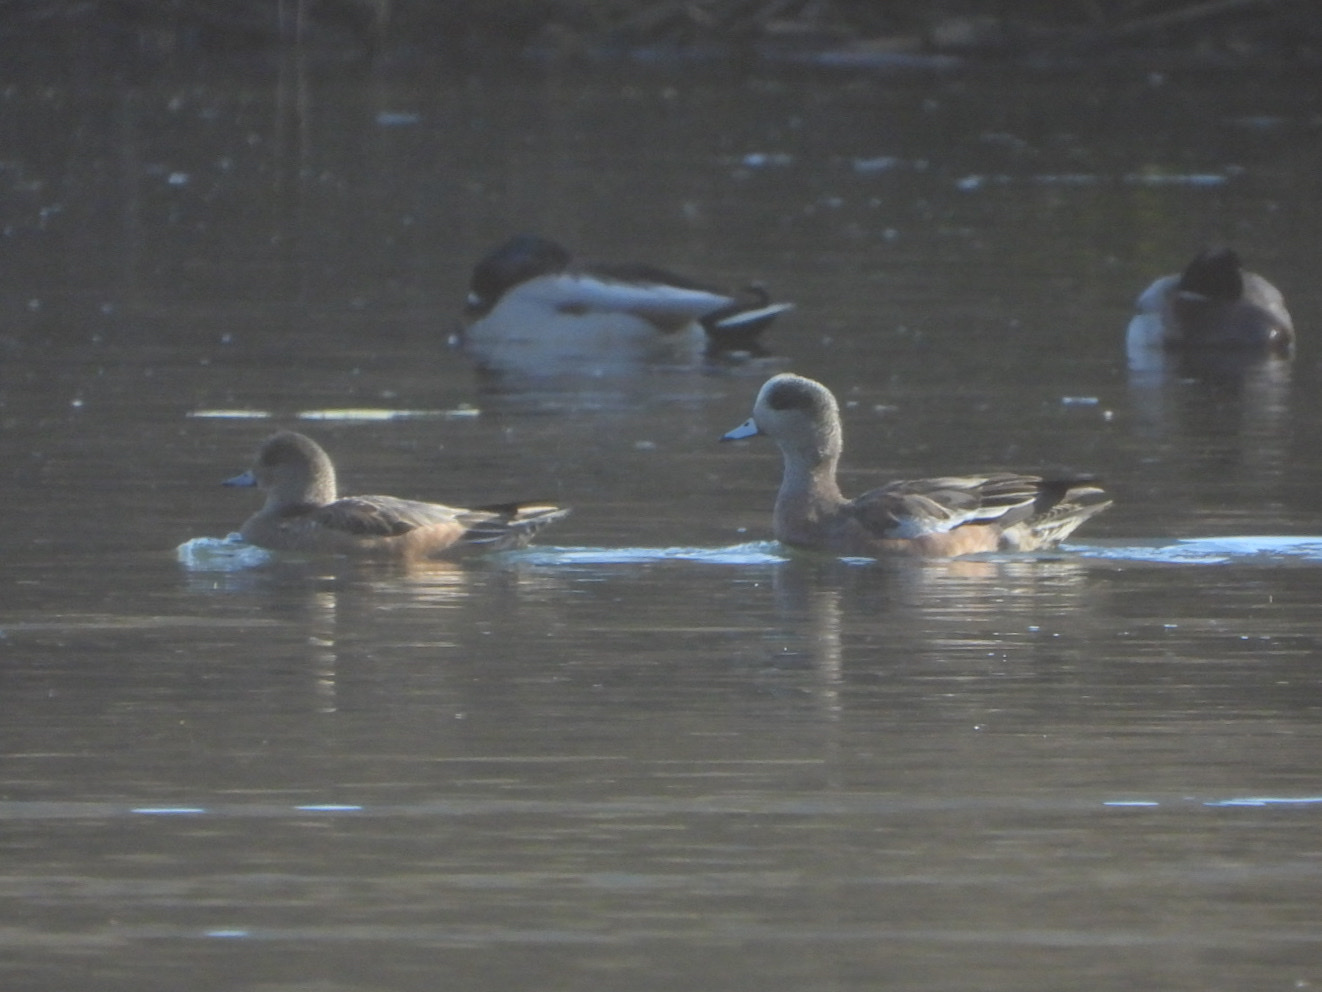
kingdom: Animalia
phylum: Chordata
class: Aves
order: Anseriformes
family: Anatidae
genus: Mareca
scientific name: Mareca americana
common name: American wigeon
